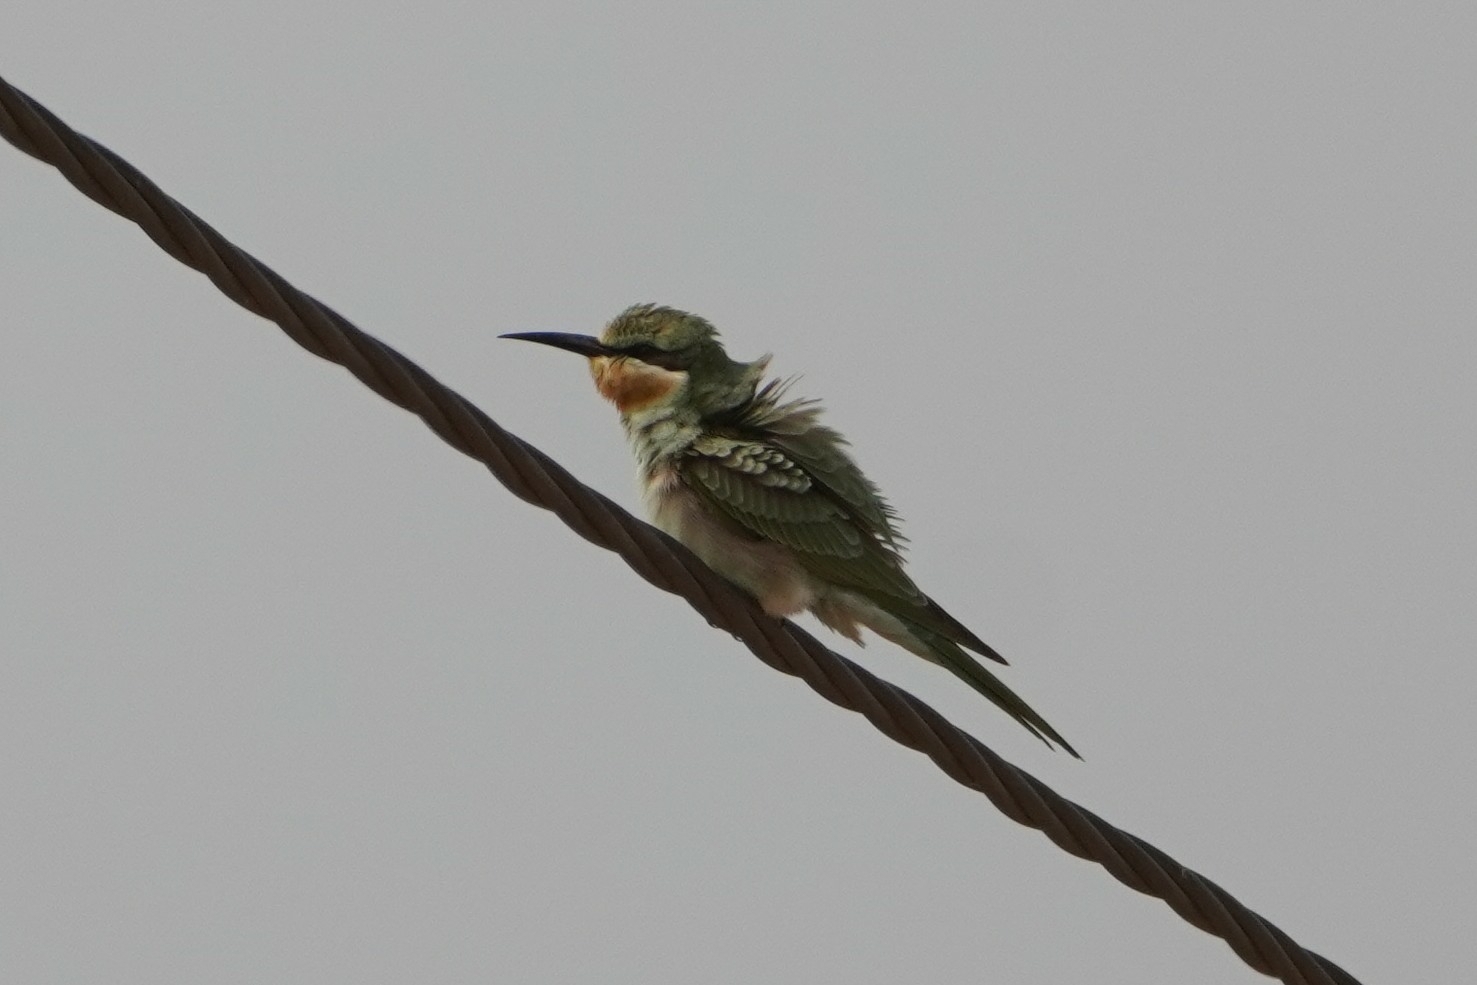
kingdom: Animalia
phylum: Chordata
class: Aves
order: Coraciiformes
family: Meropidae
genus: Merops
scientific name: Merops persicus
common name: Blue-cheeked bee-eater
